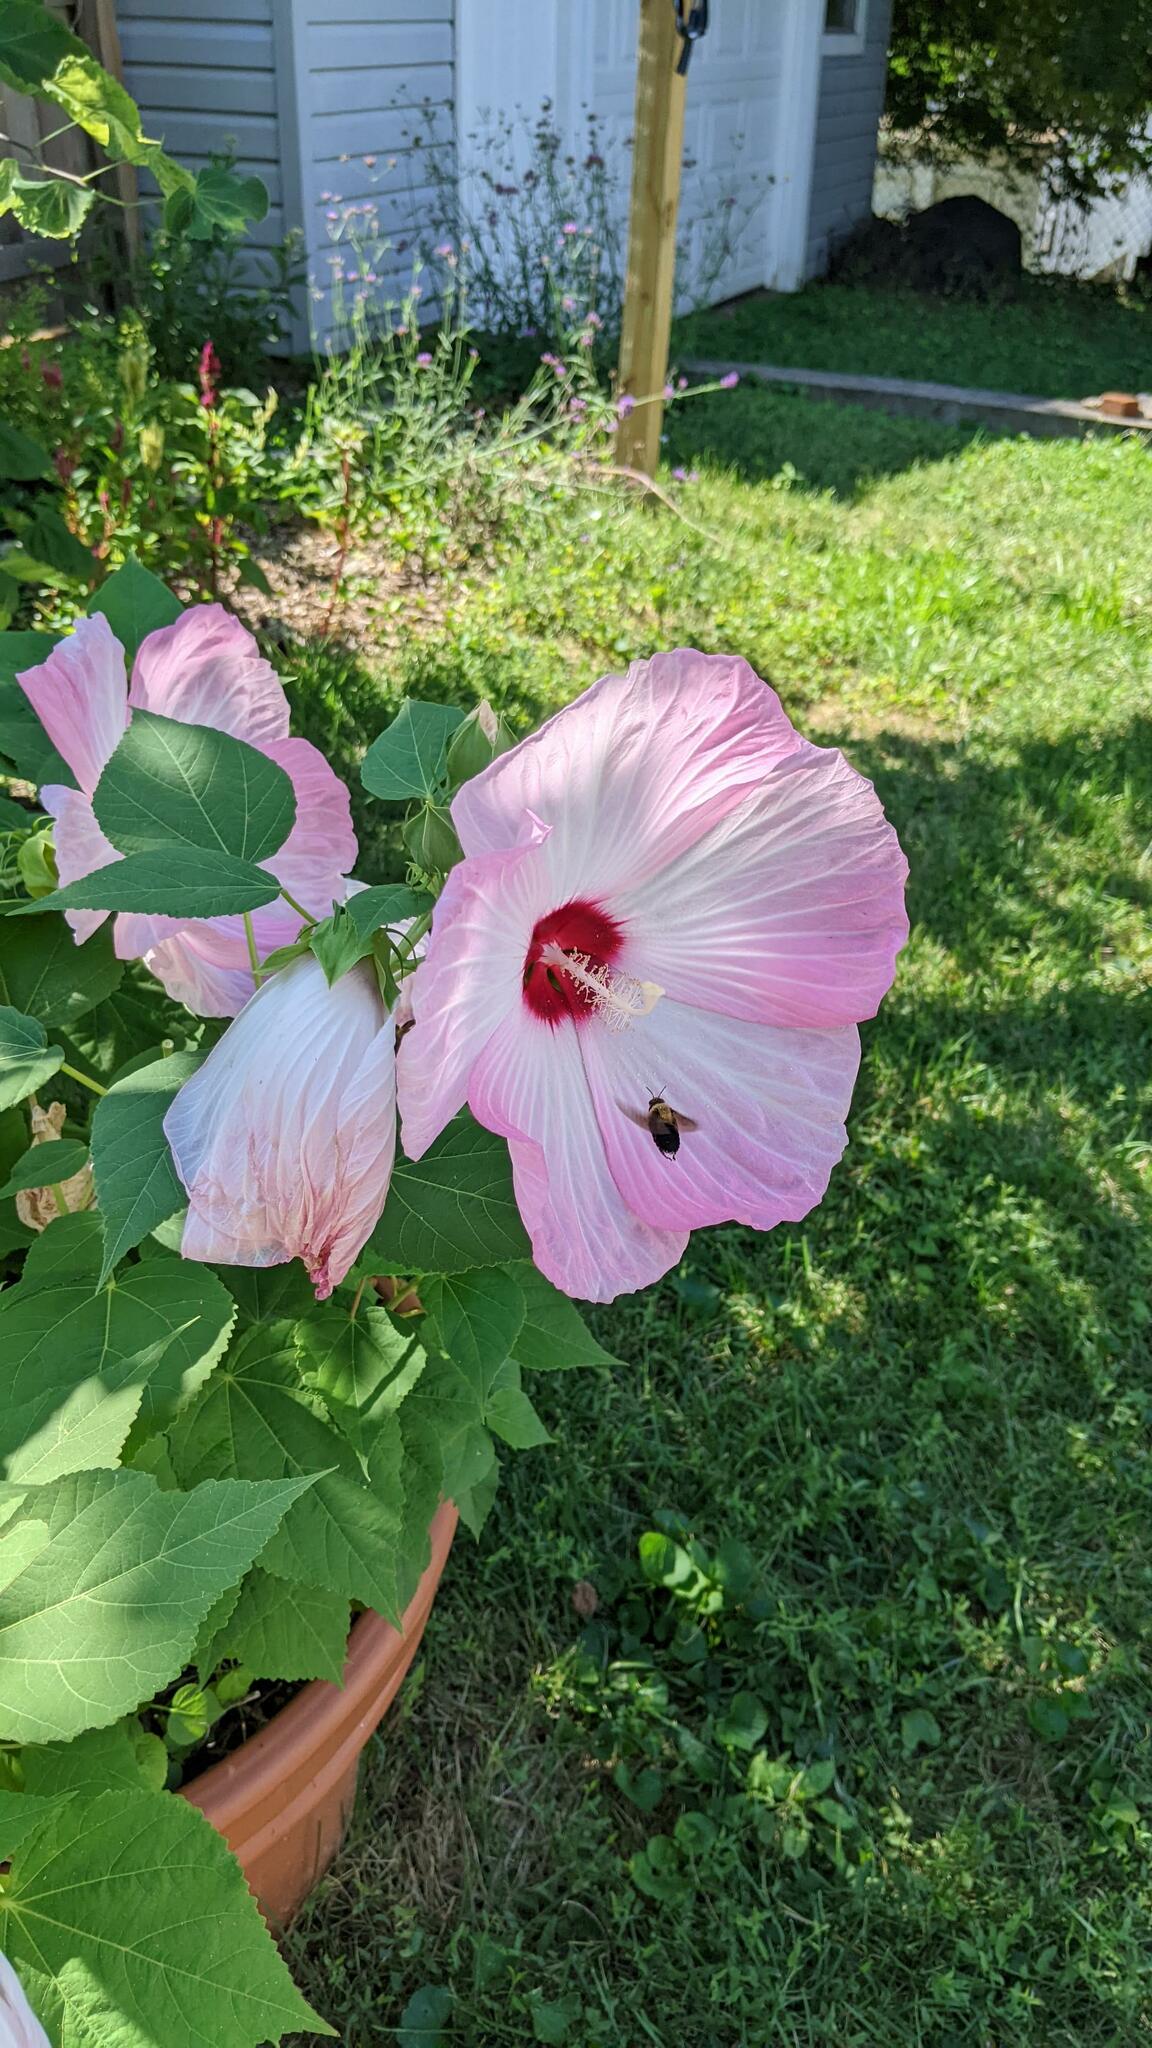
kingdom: Animalia
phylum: Arthropoda
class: Insecta
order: Hymenoptera
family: Apidae
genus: Ptilothrix
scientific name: Ptilothrix bombiformis
